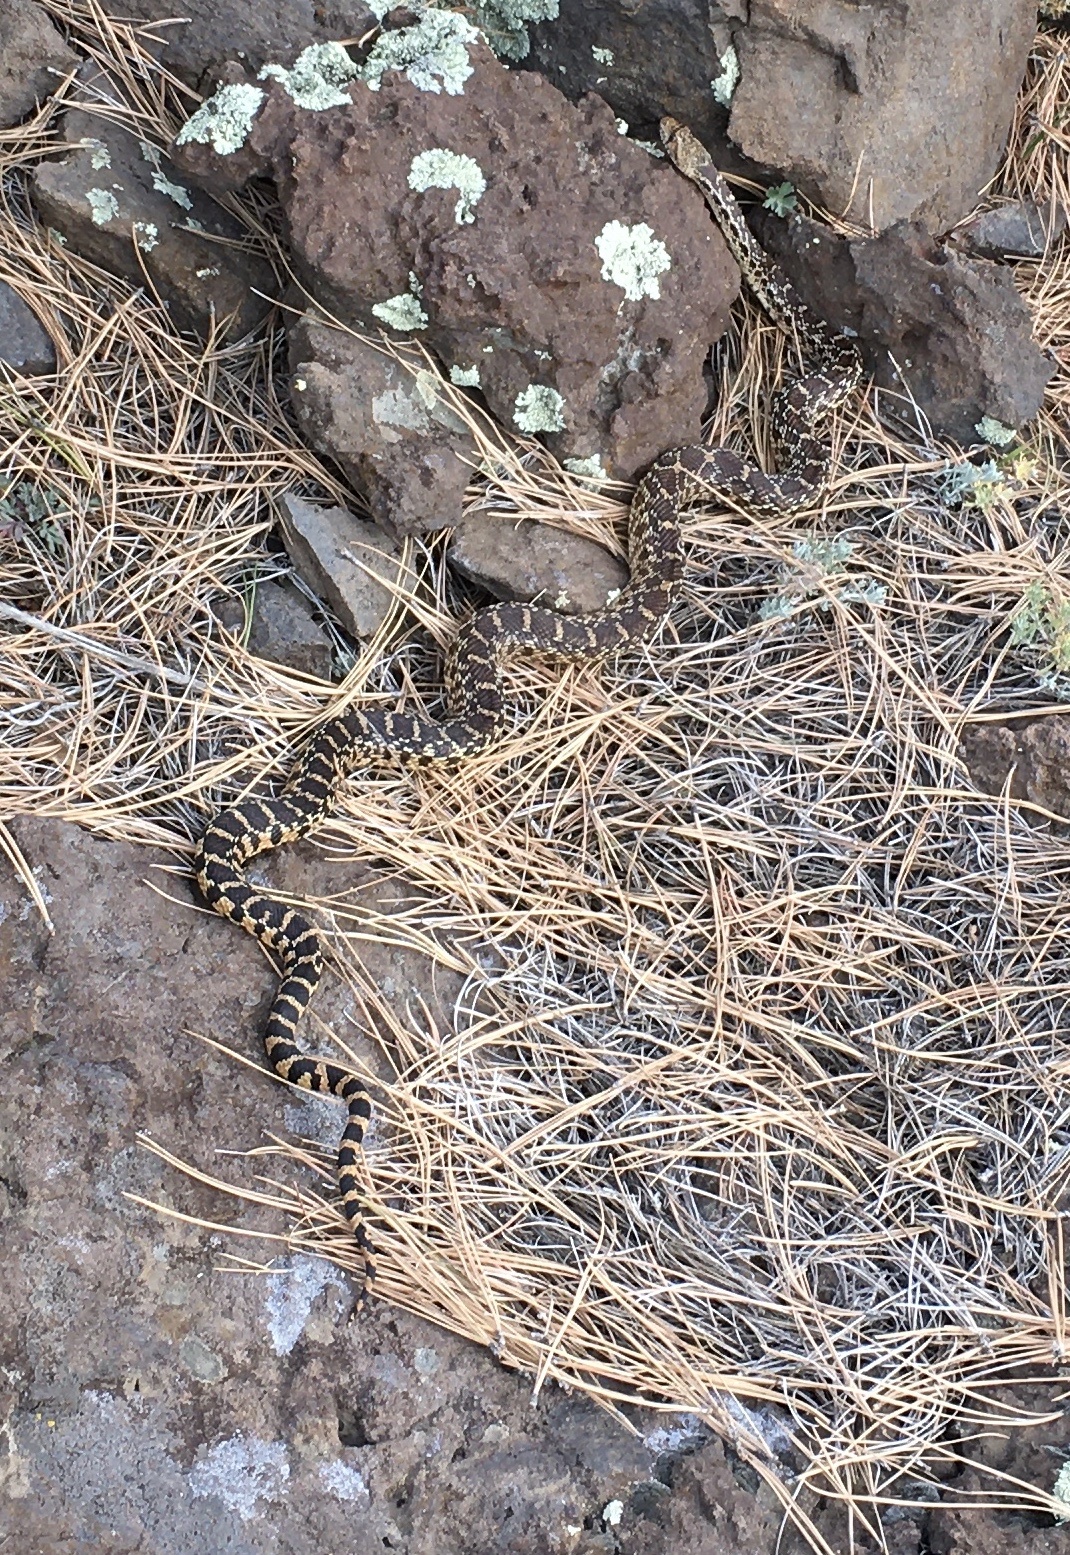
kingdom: Animalia
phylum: Chordata
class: Squamata
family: Colubridae
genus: Pituophis
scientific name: Pituophis catenifer
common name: Gopher snake
